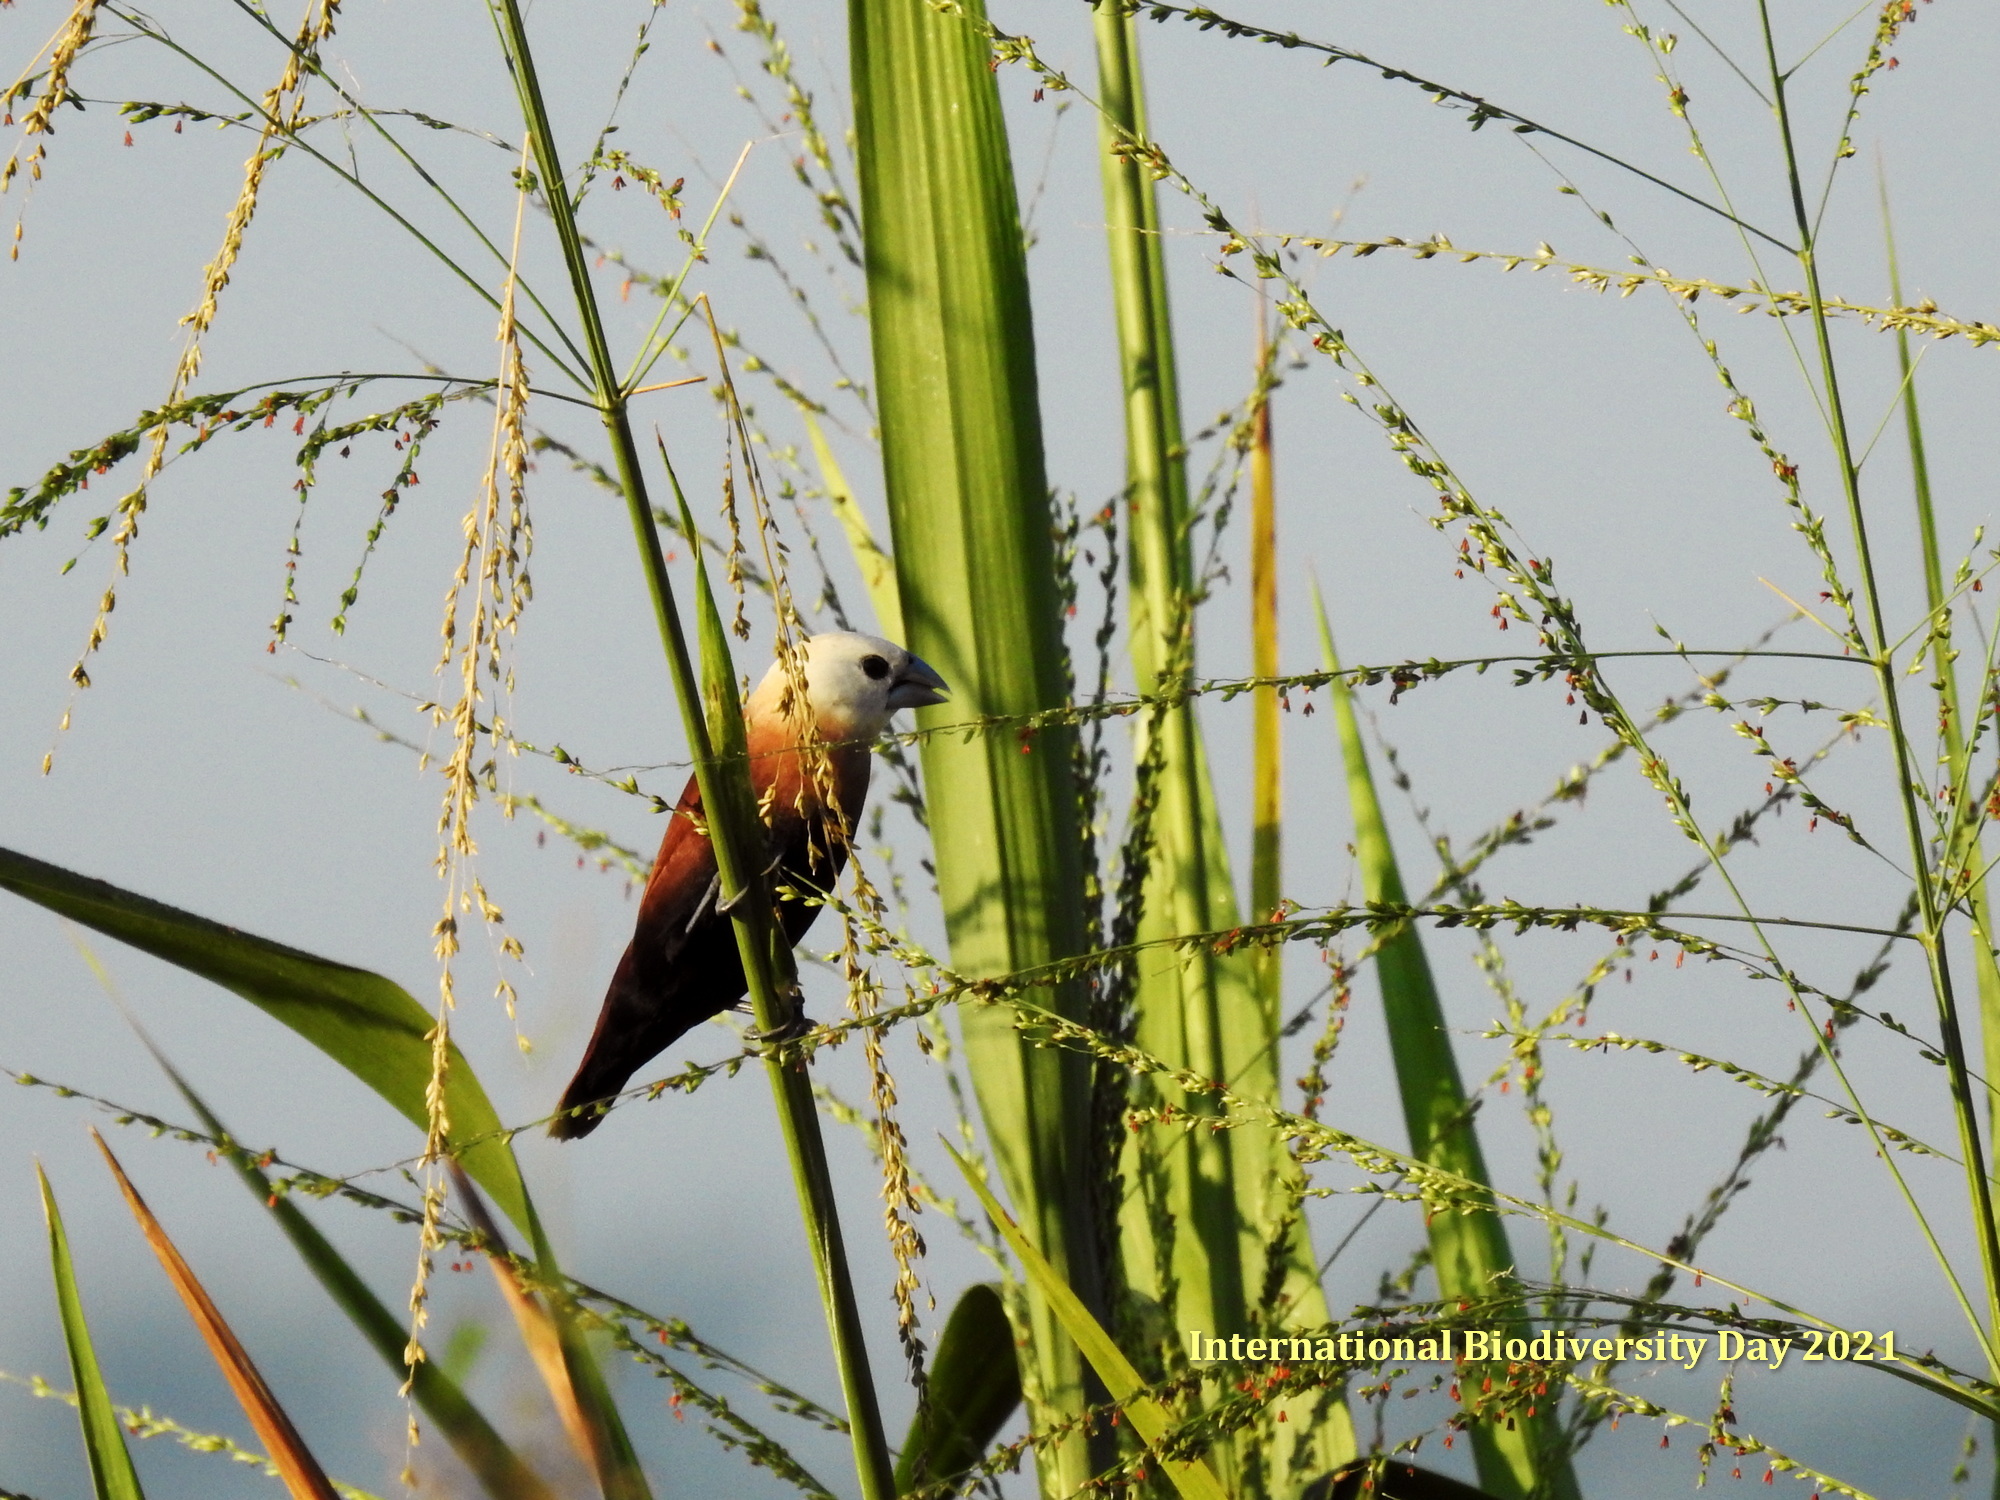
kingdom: Animalia
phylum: Chordata
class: Aves
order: Passeriformes
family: Estrildidae
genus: Lonchura
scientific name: Lonchura maja
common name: White-headed munia
